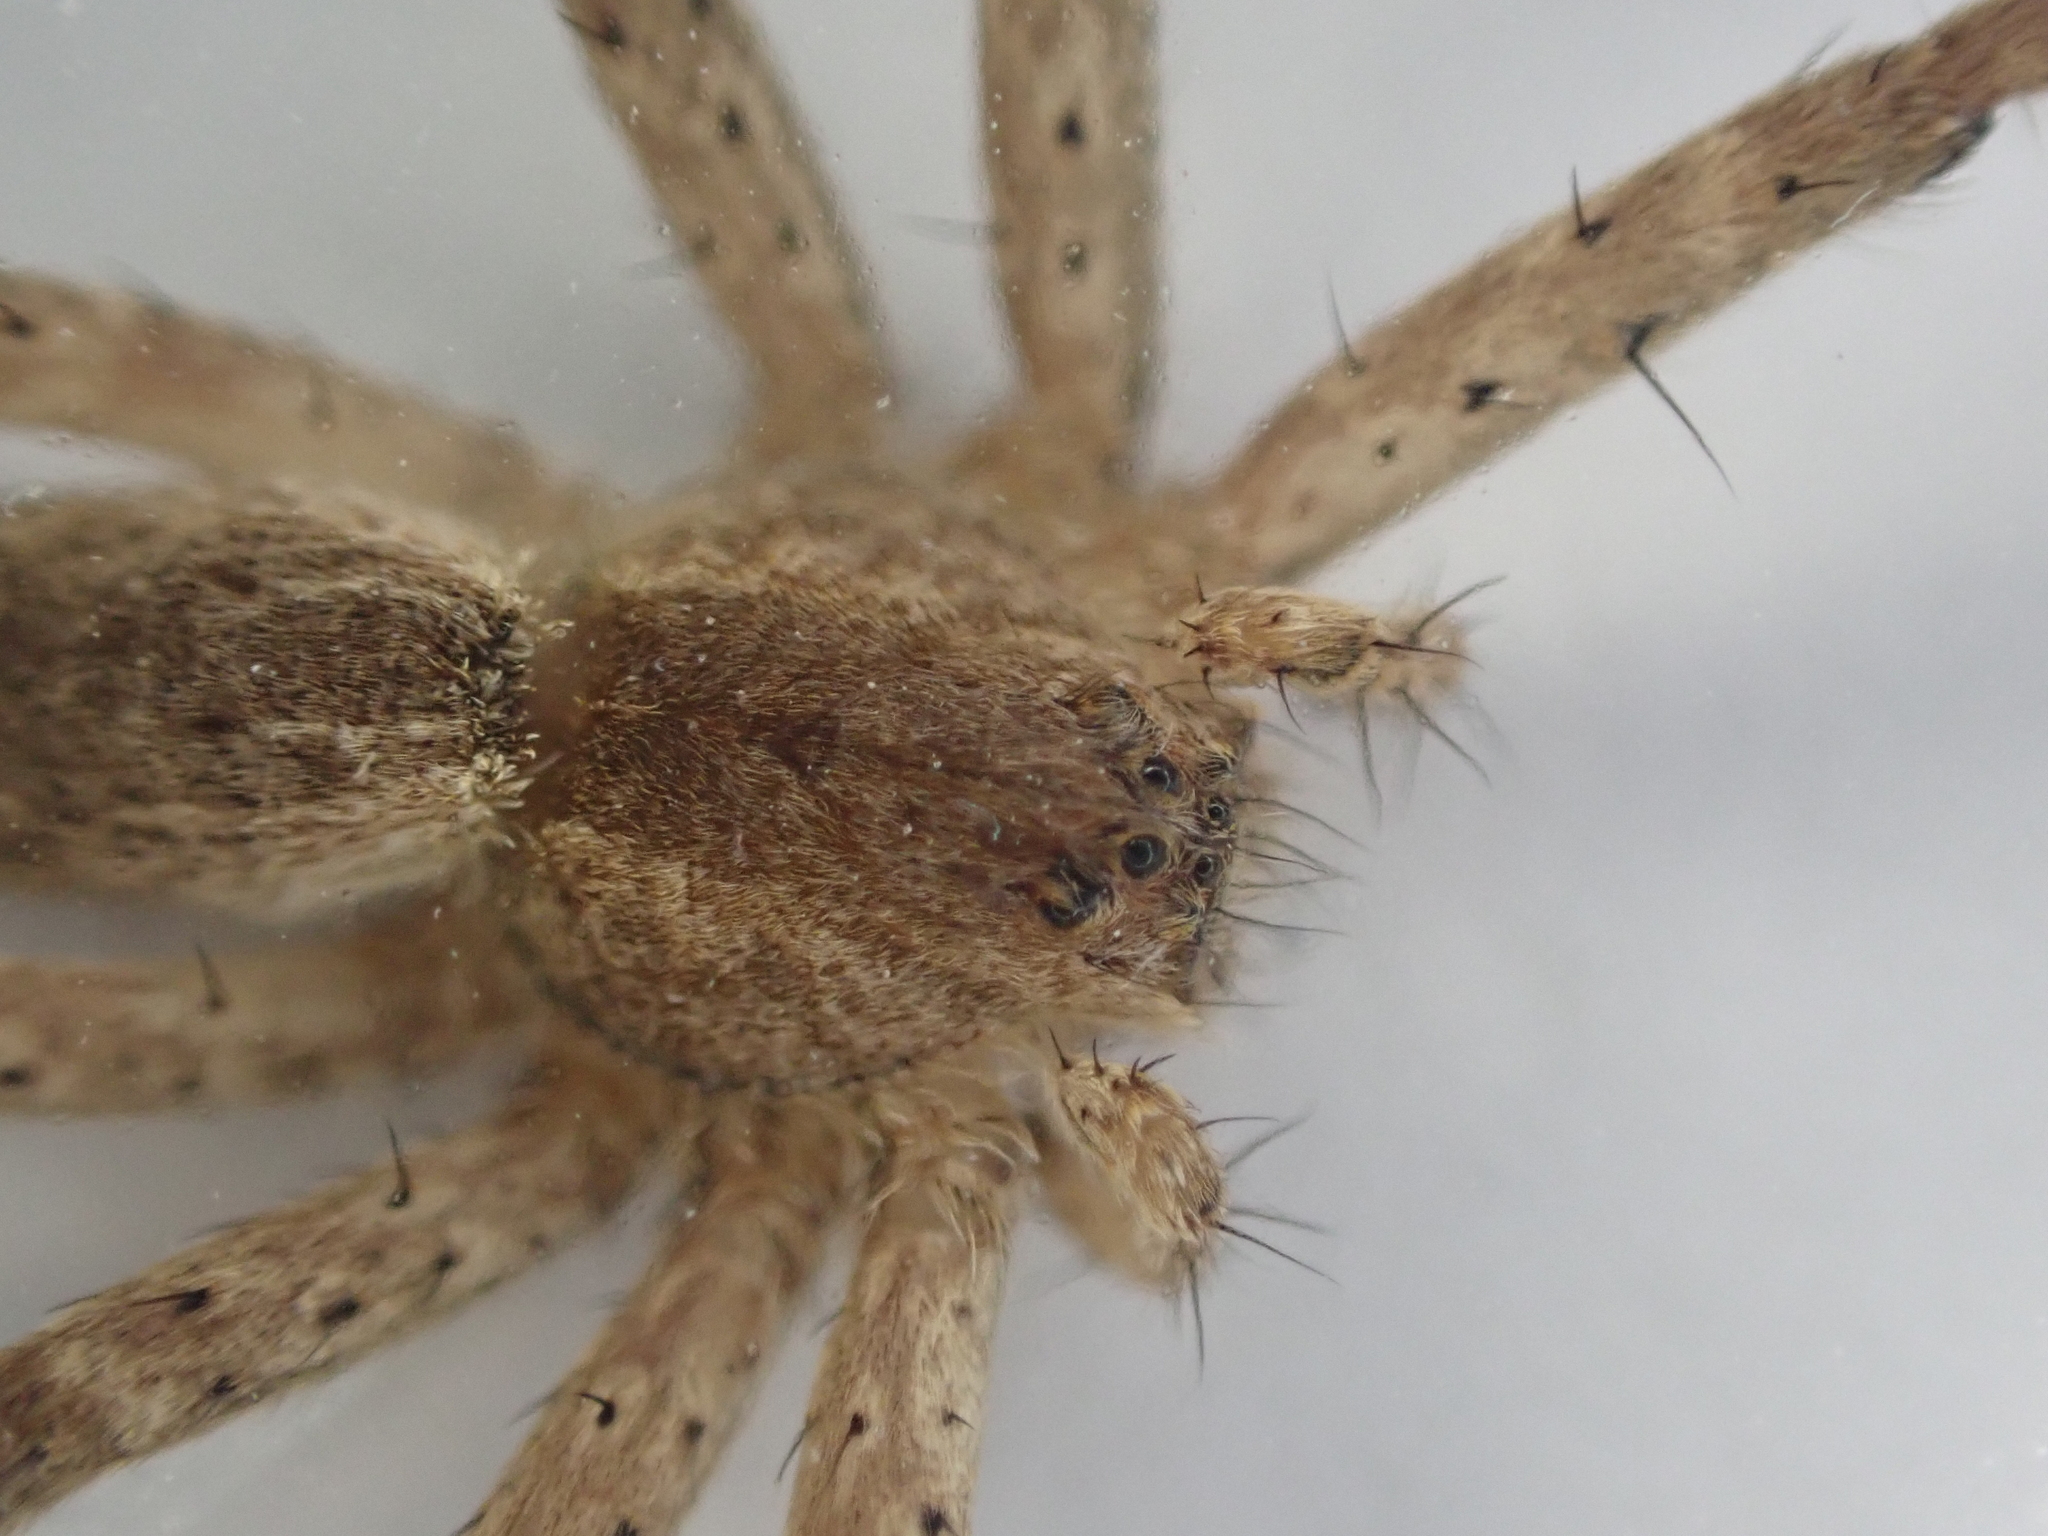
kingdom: Animalia
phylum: Arthropoda
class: Arachnida
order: Araneae
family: Pisauridae
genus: Pisaurina
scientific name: Pisaurina mira
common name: American nursery web spider
